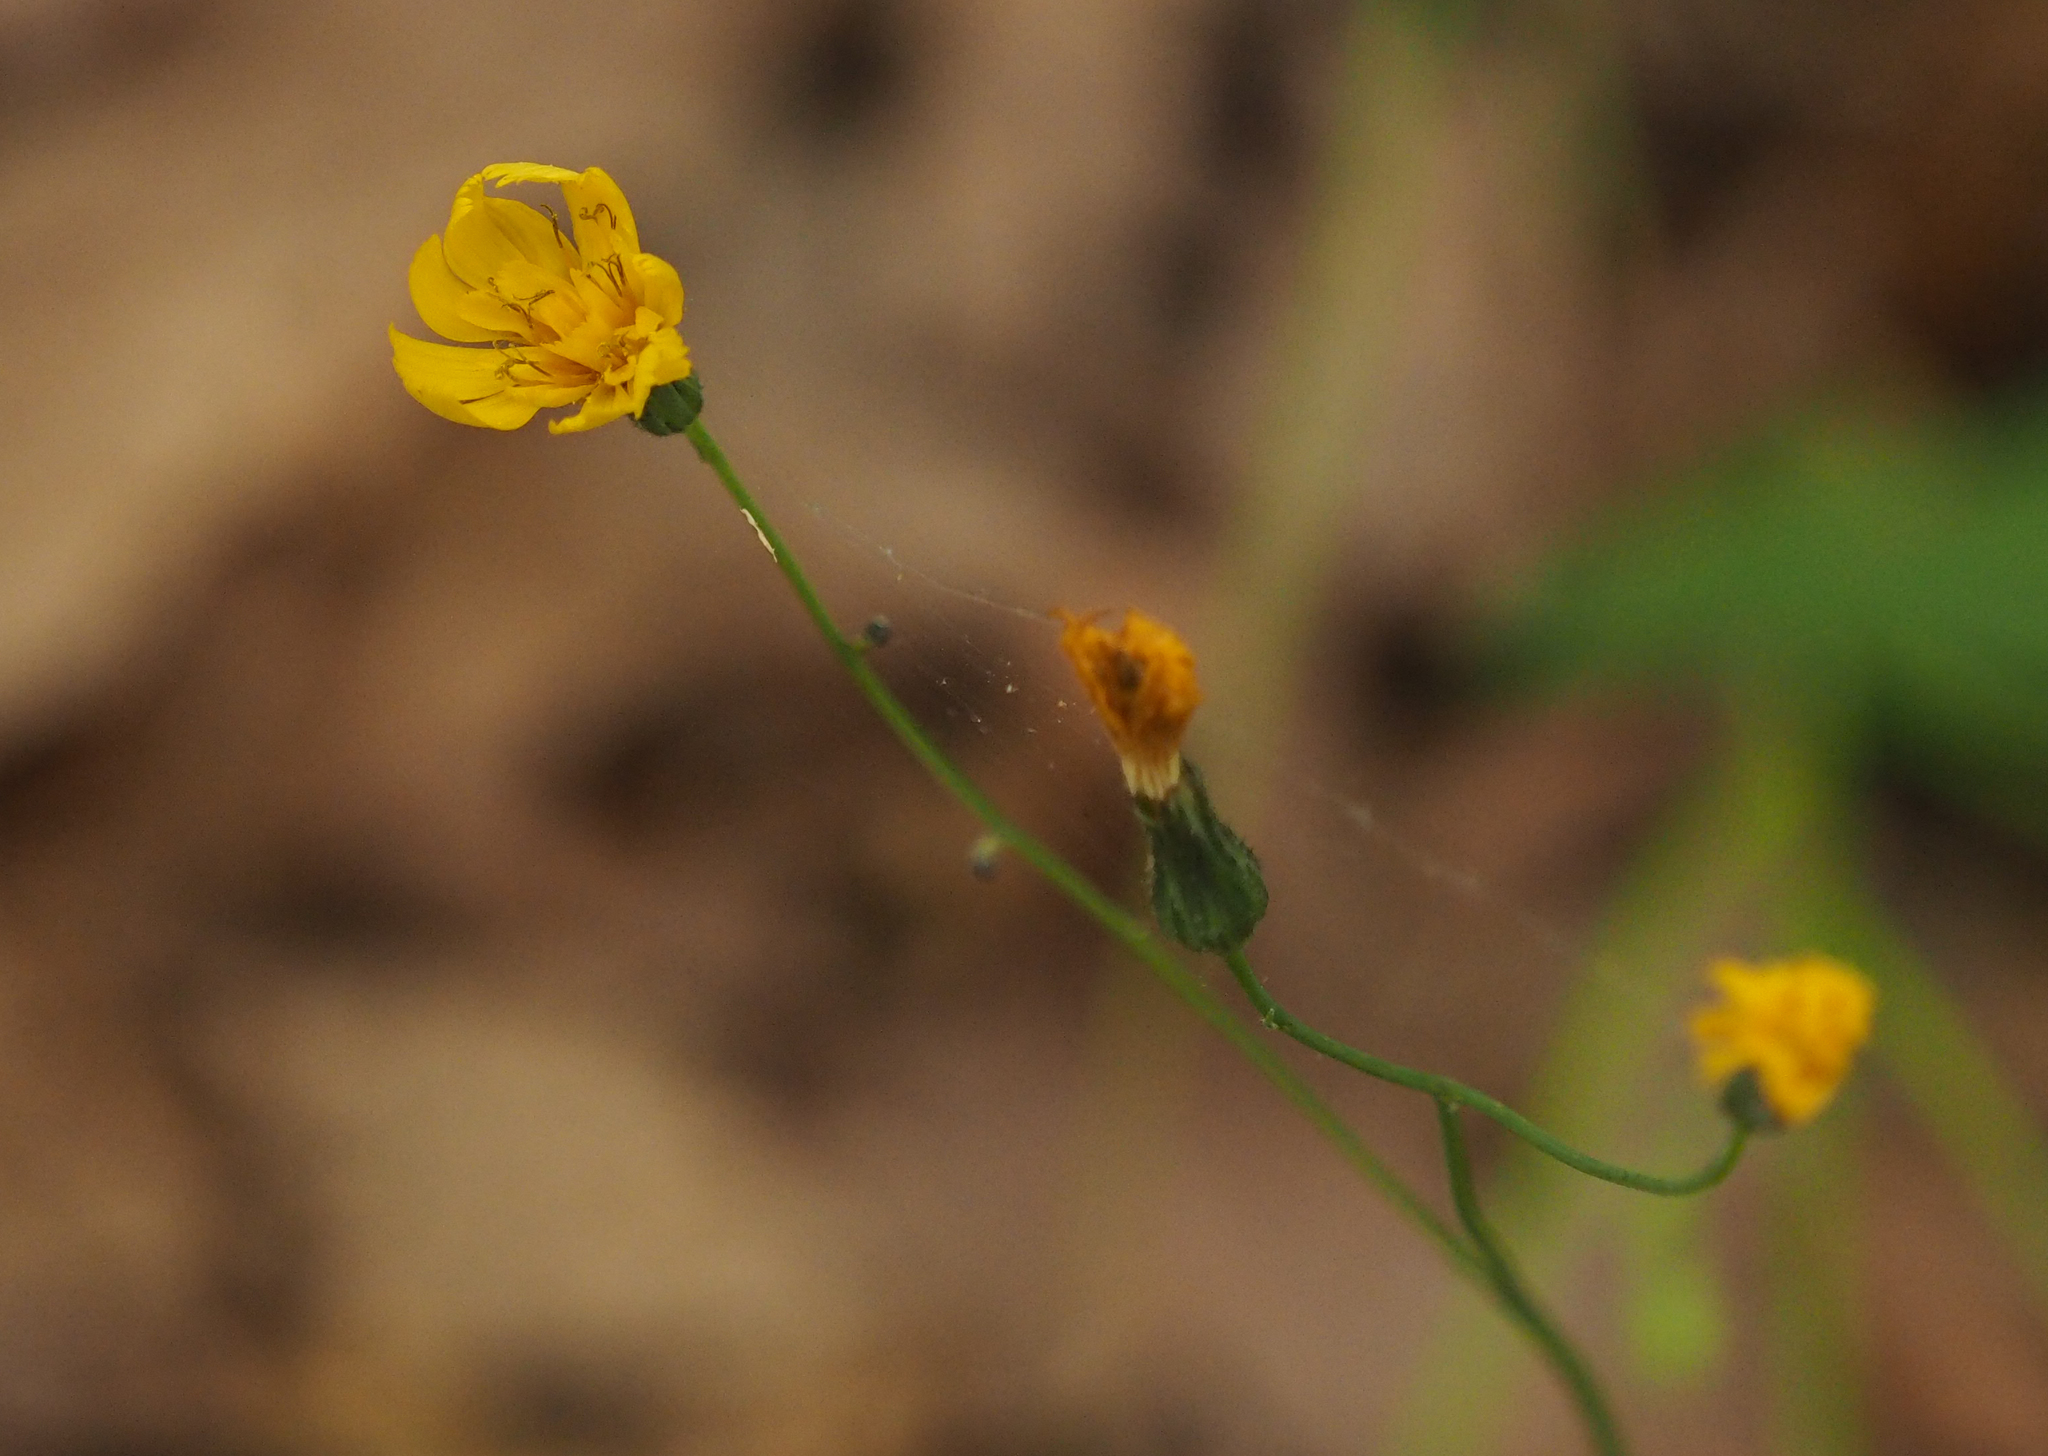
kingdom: Plantae
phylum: Tracheophyta
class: Magnoliopsida
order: Asterales
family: Asteraceae
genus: Hieracium
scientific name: Hieracium venosum
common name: Rattlesnake hawkweed
